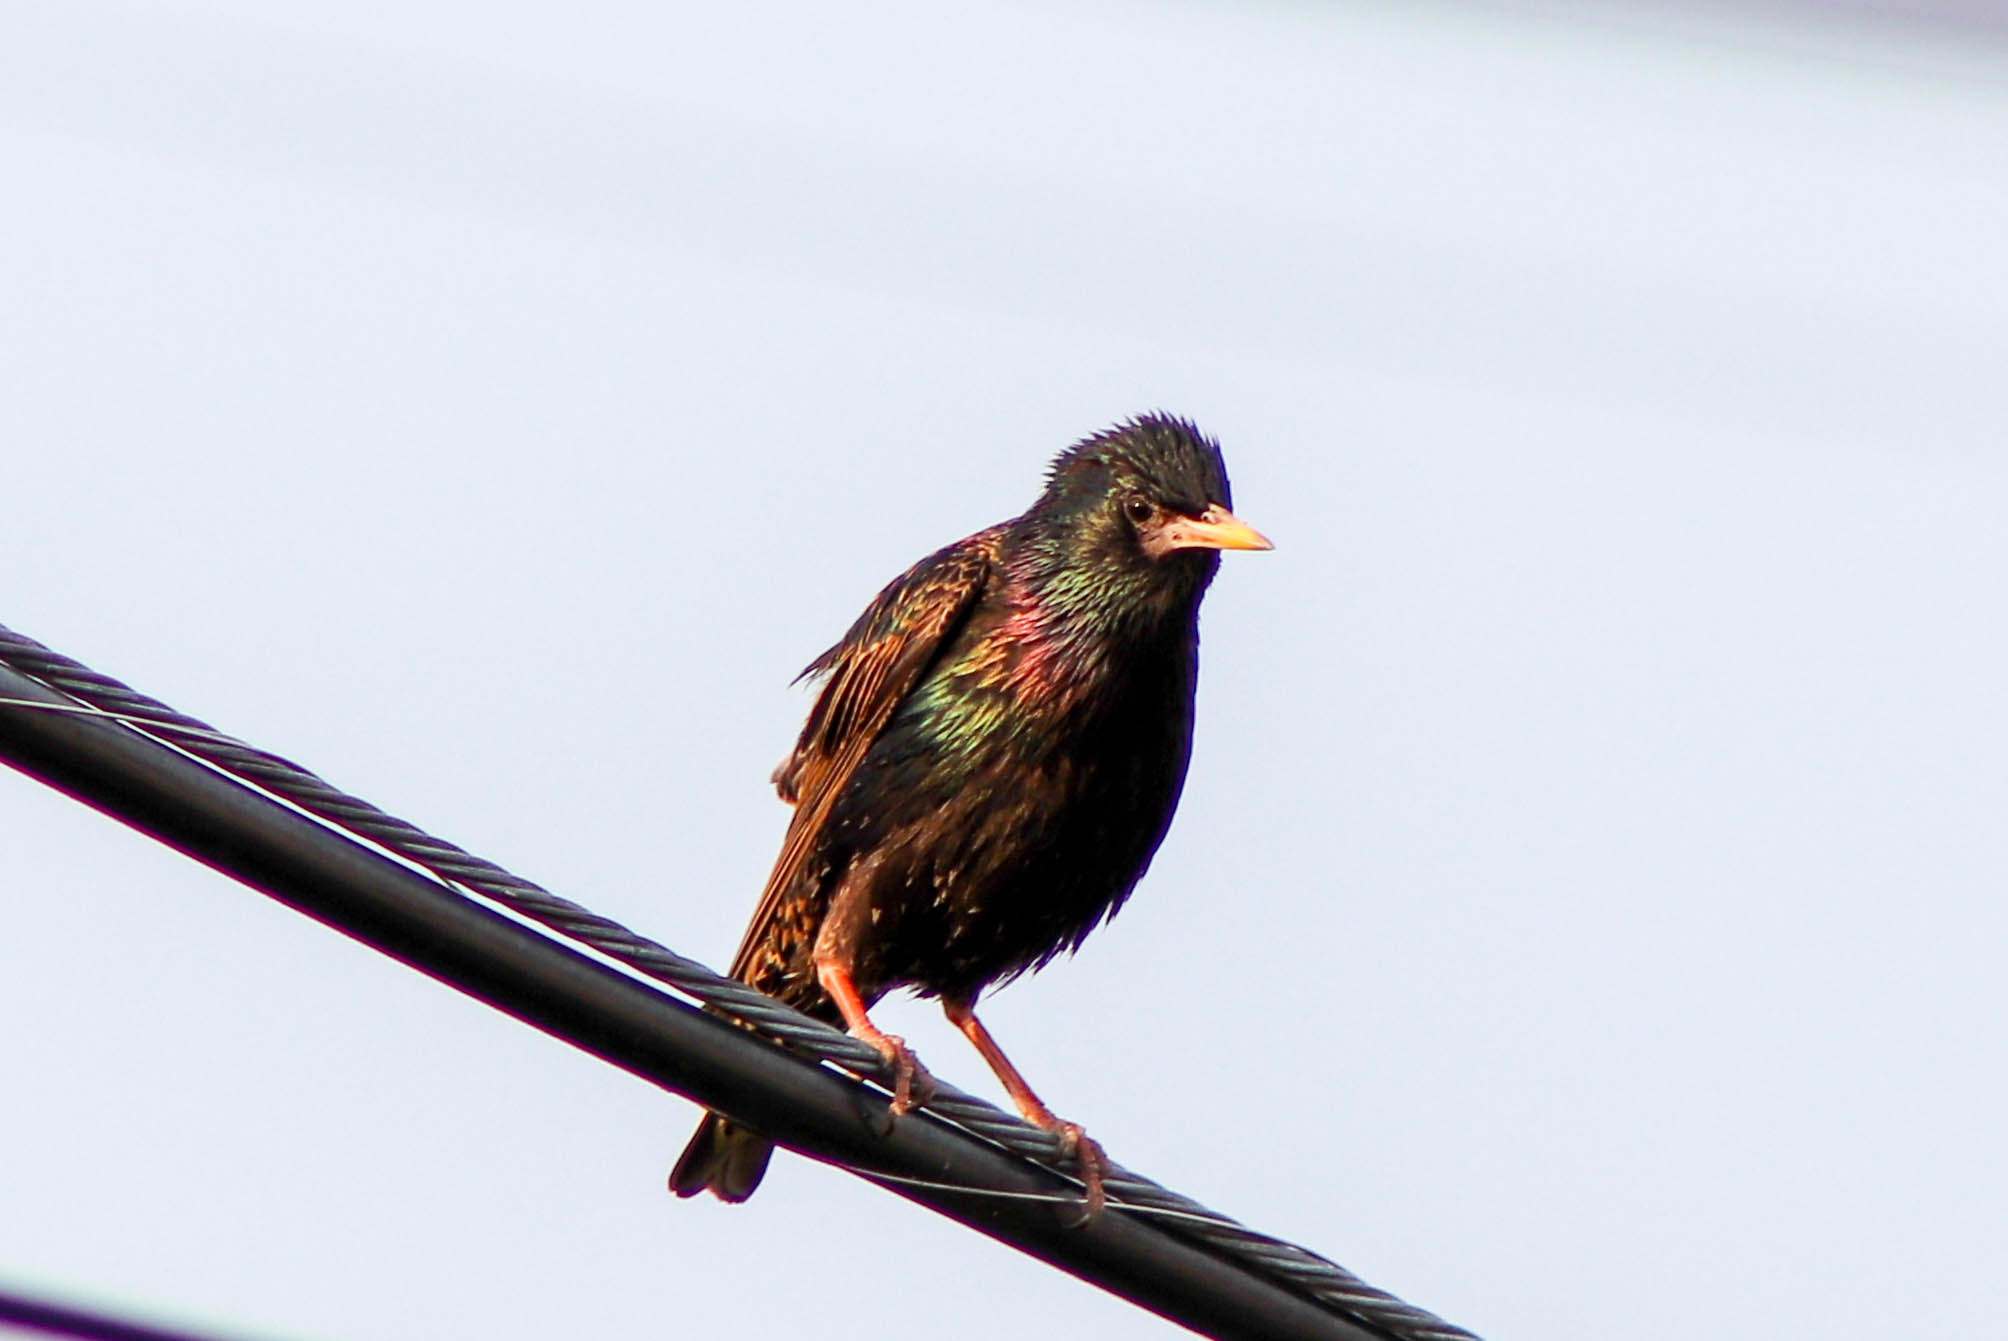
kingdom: Animalia
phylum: Chordata
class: Aves
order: Passeriformes
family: Sturnidae
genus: Sturnus
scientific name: Sturnus vulgaris
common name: Common starling
